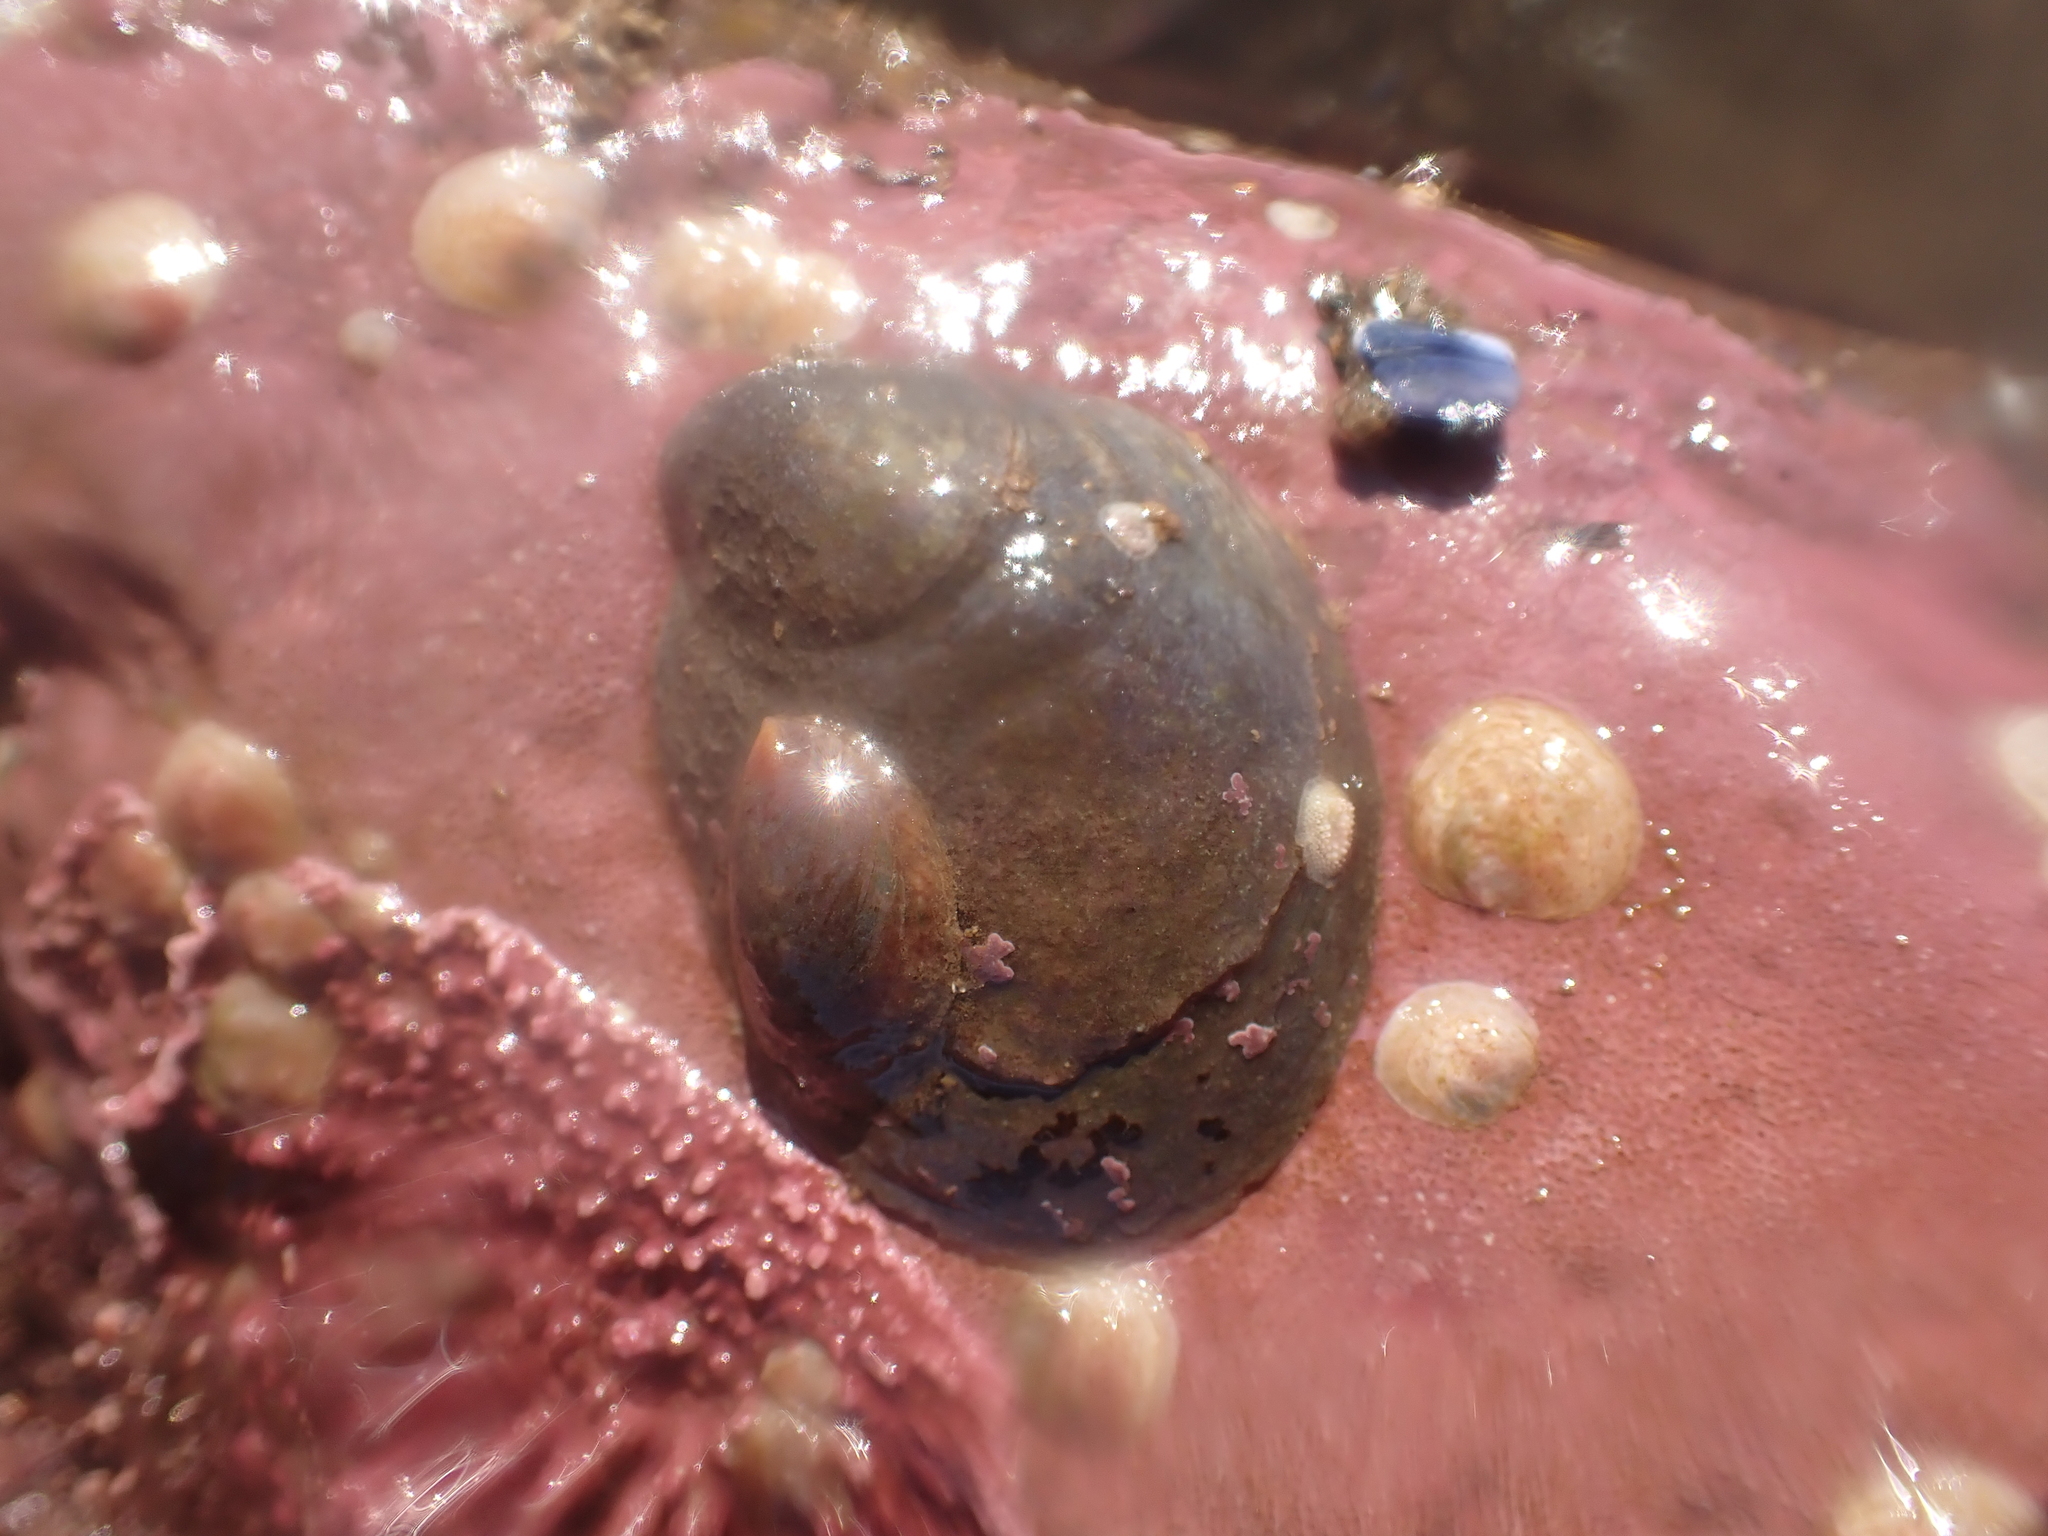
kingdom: Animalia
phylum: Mollusca
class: Gastropoda
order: Littorinimorpha
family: Calyptraeidae
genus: Crepidula
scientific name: Crepidula fornicata
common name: Slipper limpet
